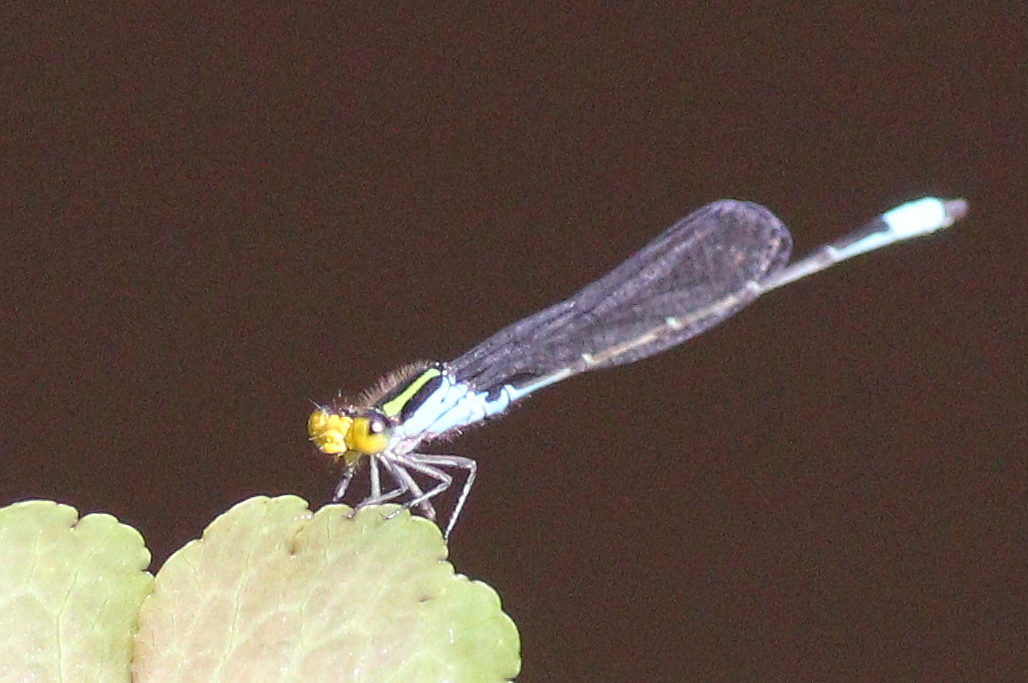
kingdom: Animalia
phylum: Arthropoda
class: Insecta
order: Odonata
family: Coenagrionidae
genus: Neoerythromma
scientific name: Neoerythromma cultellatum
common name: Caribbean yellowface
